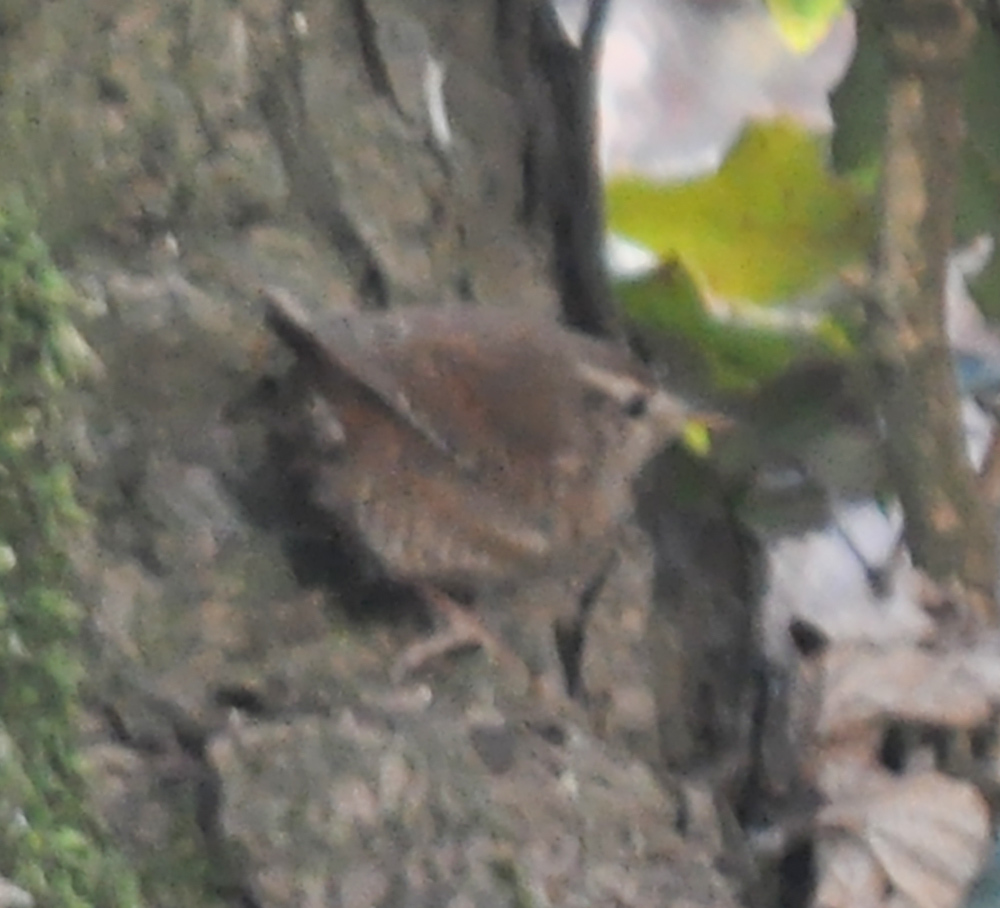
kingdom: Animalia
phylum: Chordata
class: Aves
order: Passeriformes
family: Troglodytidae
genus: Troglodytes
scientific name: Troglodytes troglodytes
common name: Eurasian wren
